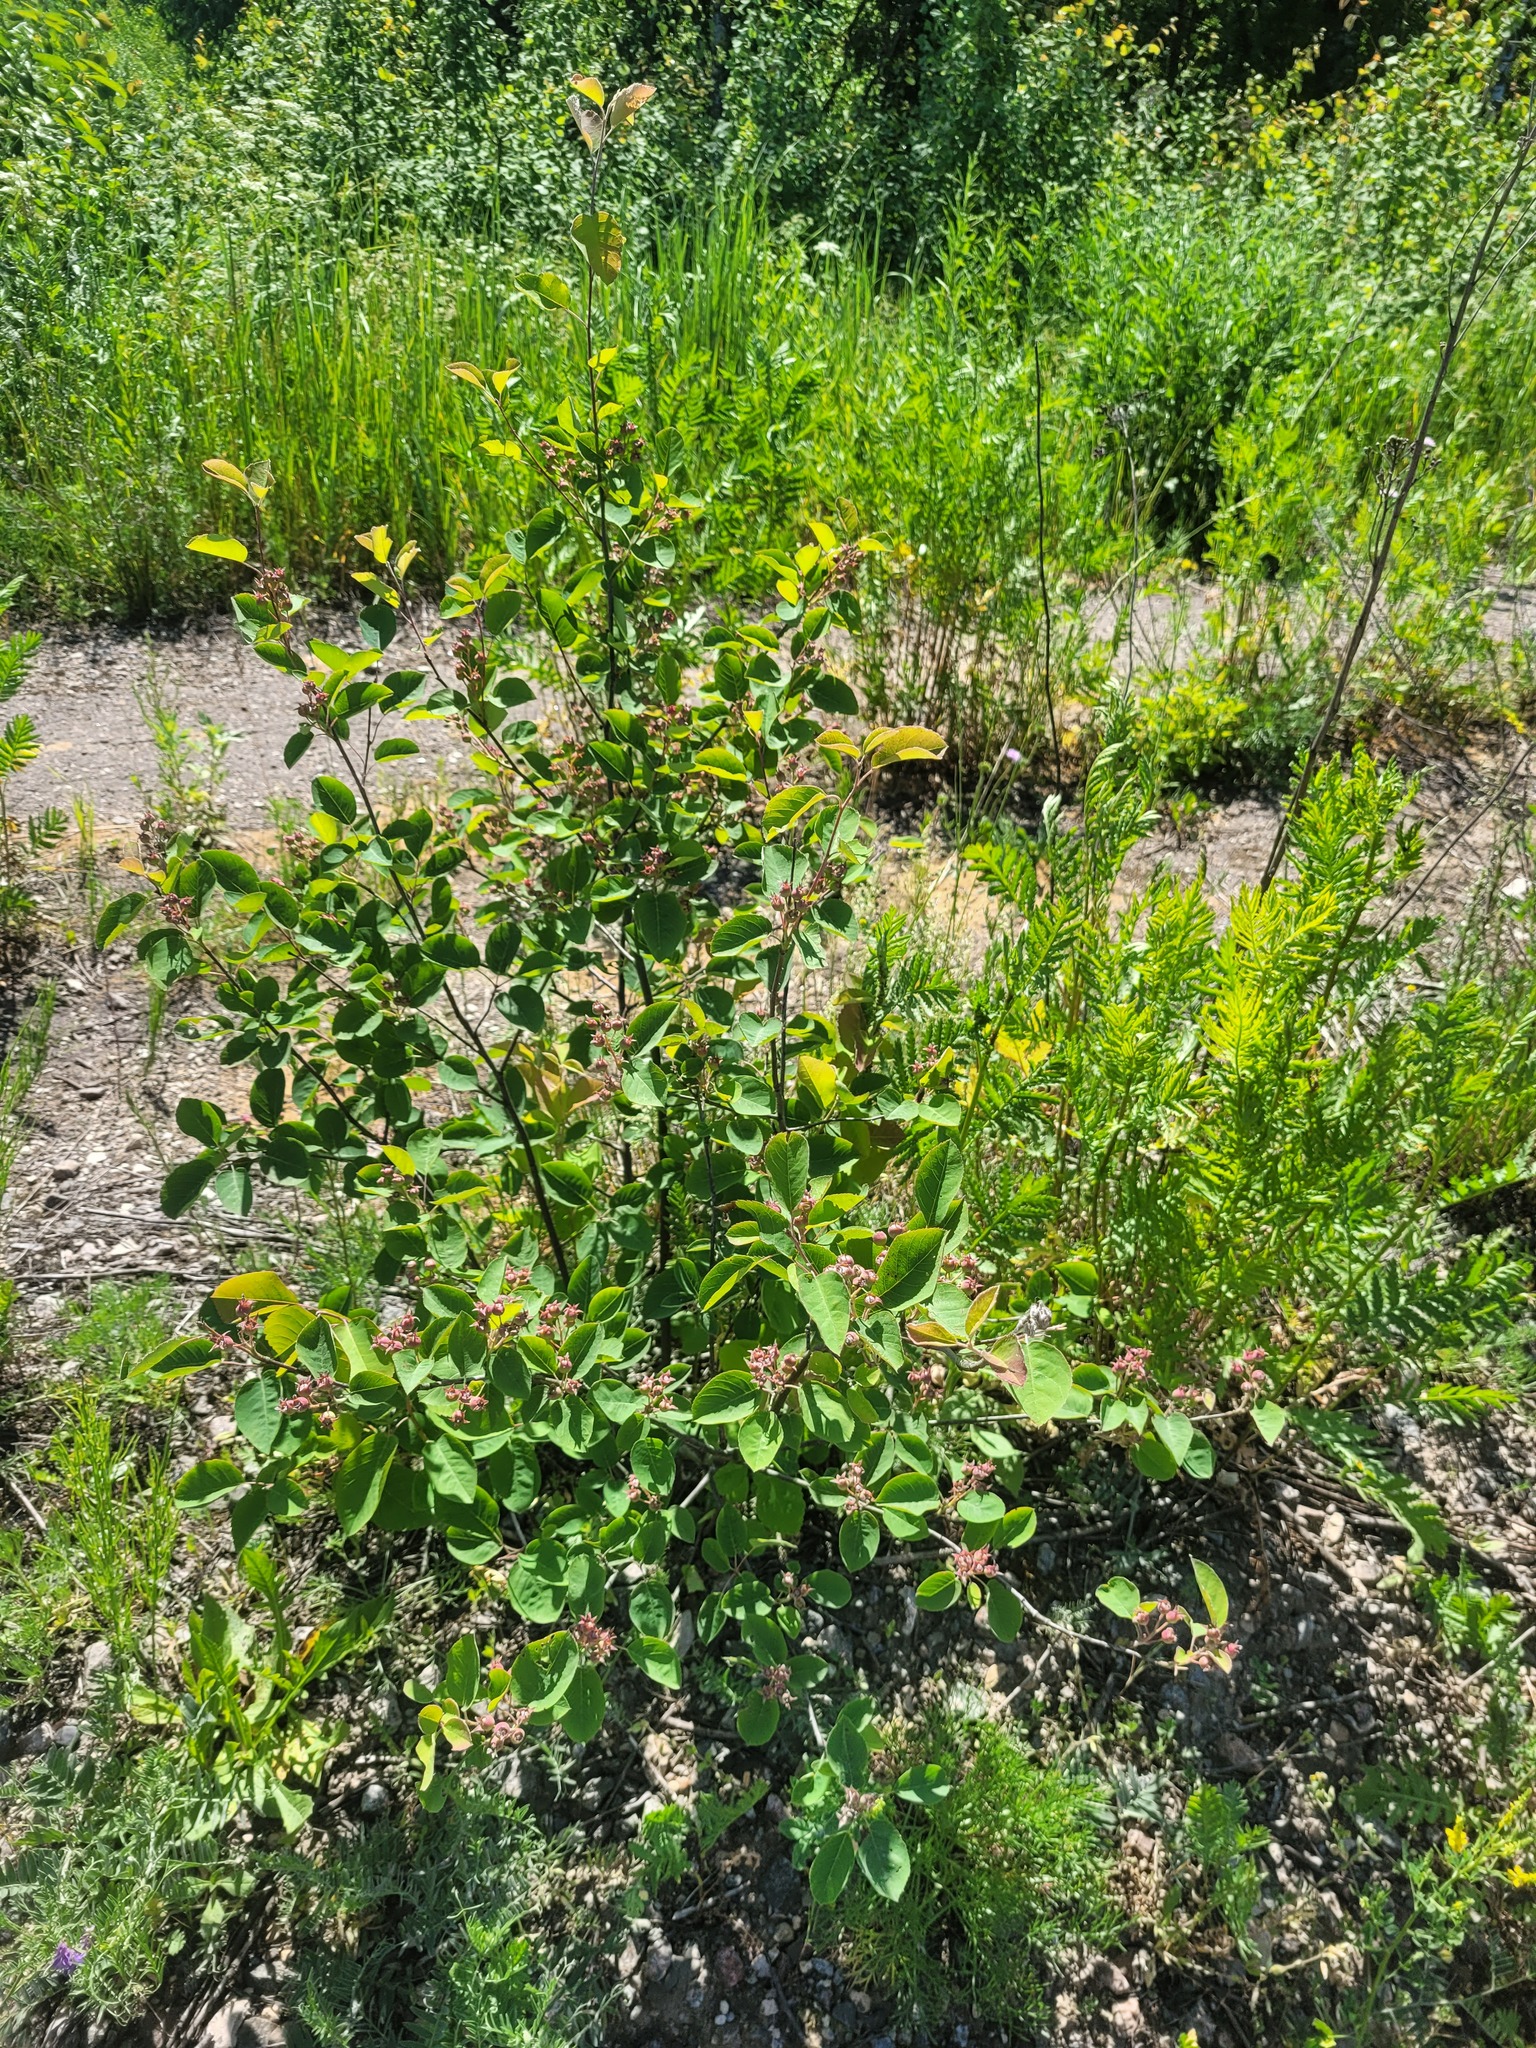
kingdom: Plantae
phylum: Tracheophyta
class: Magnoliopsida
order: Rosales
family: Rosaceae
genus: Amelanchier
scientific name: Amelanchier
